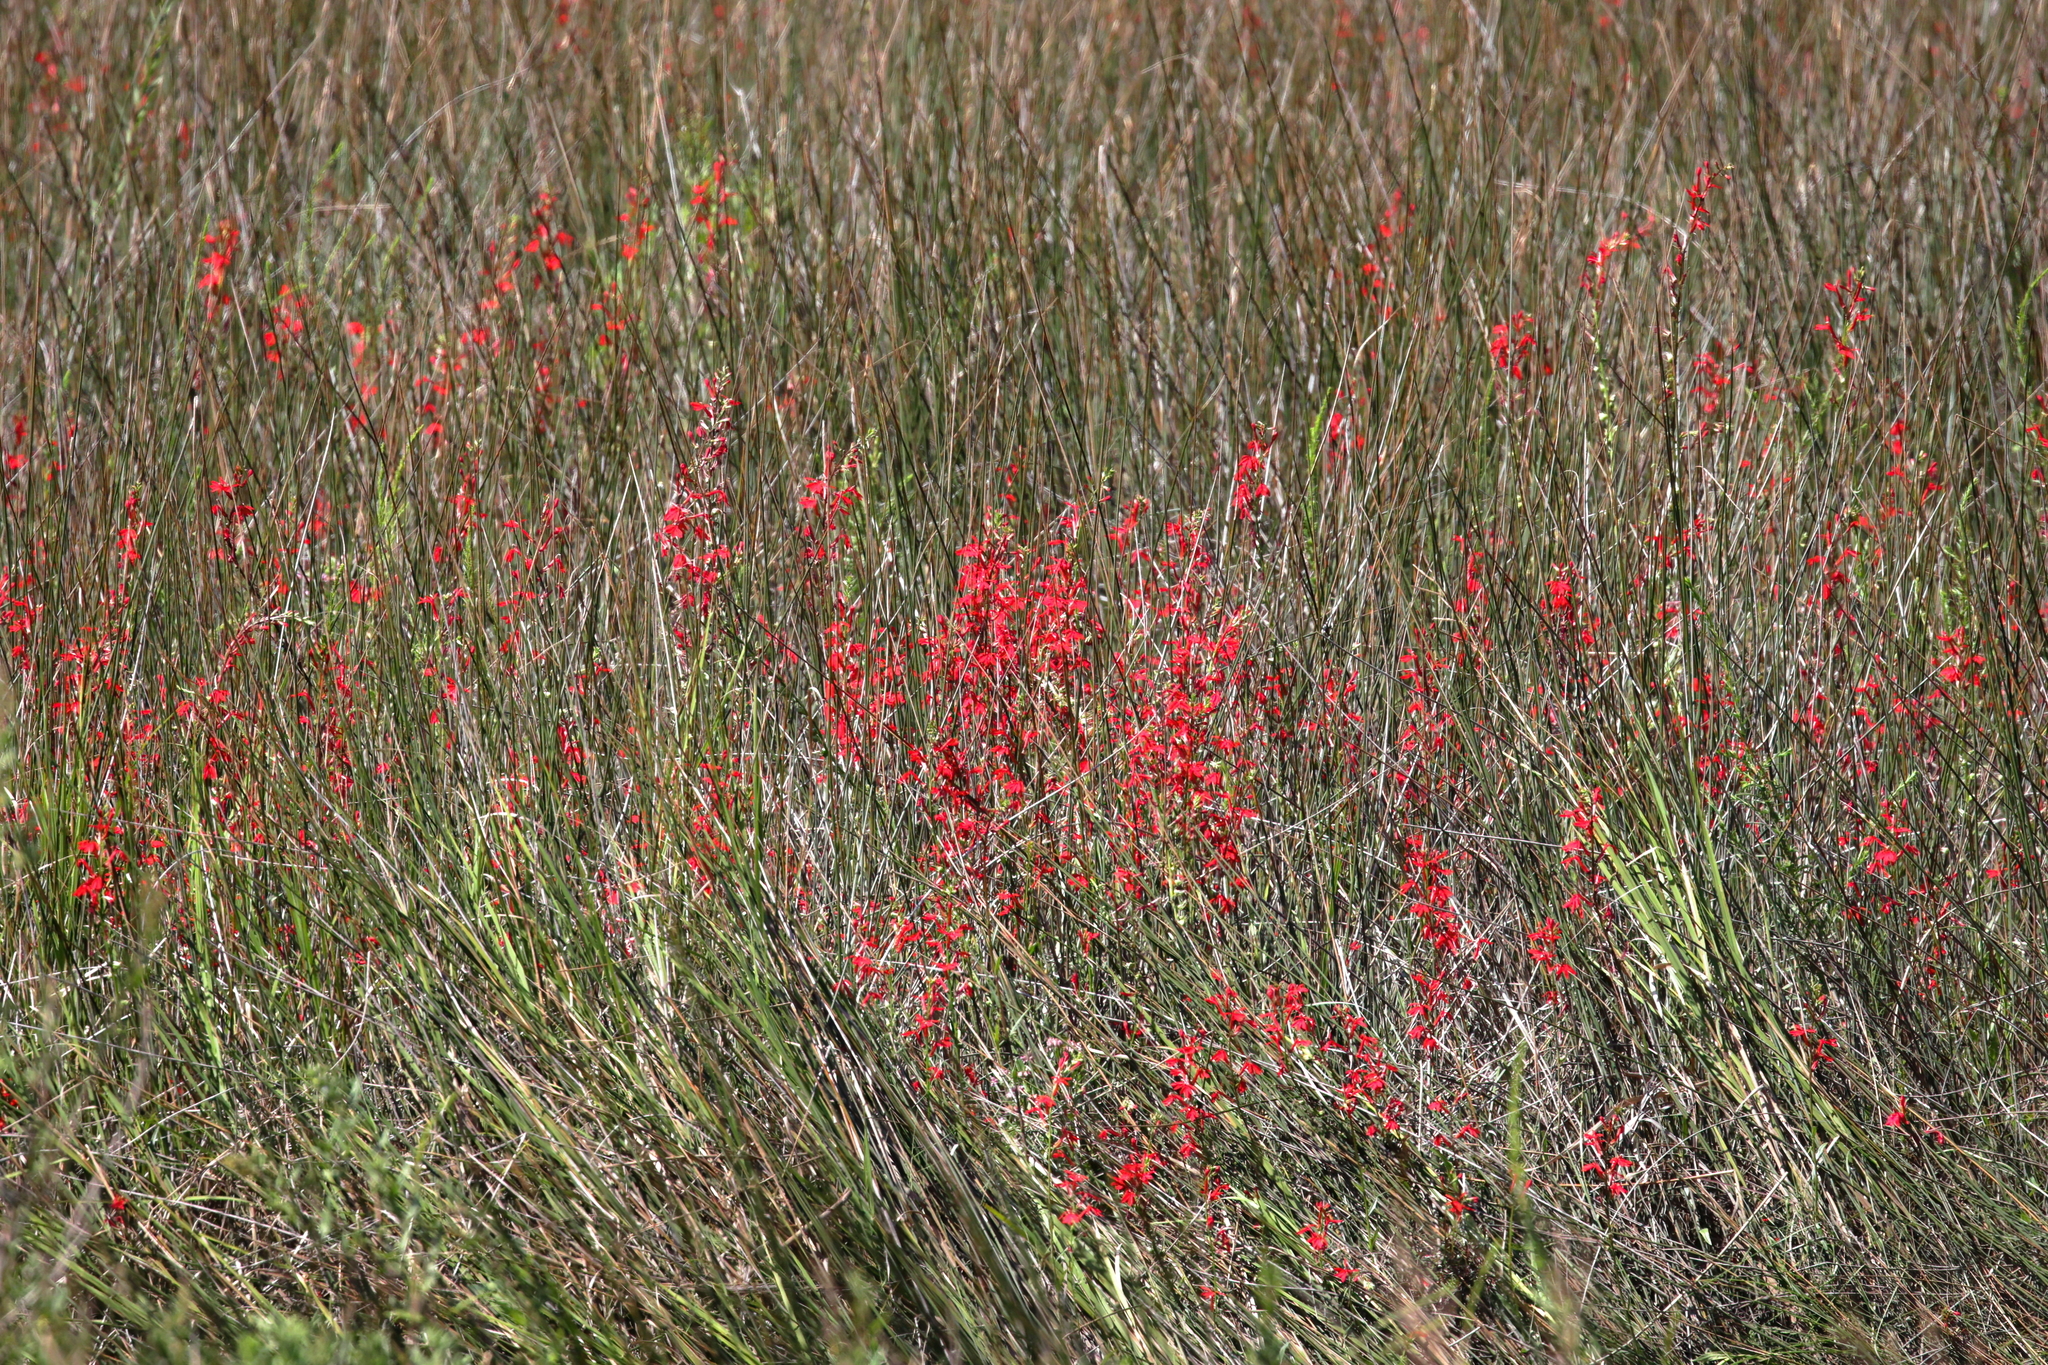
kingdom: Plantae
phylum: Tracheophyta
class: Magnoliopsida
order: Asterales
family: Campanulaceae
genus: Lobelia
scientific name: Lobelia cardinalis
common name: Cardinal flower
